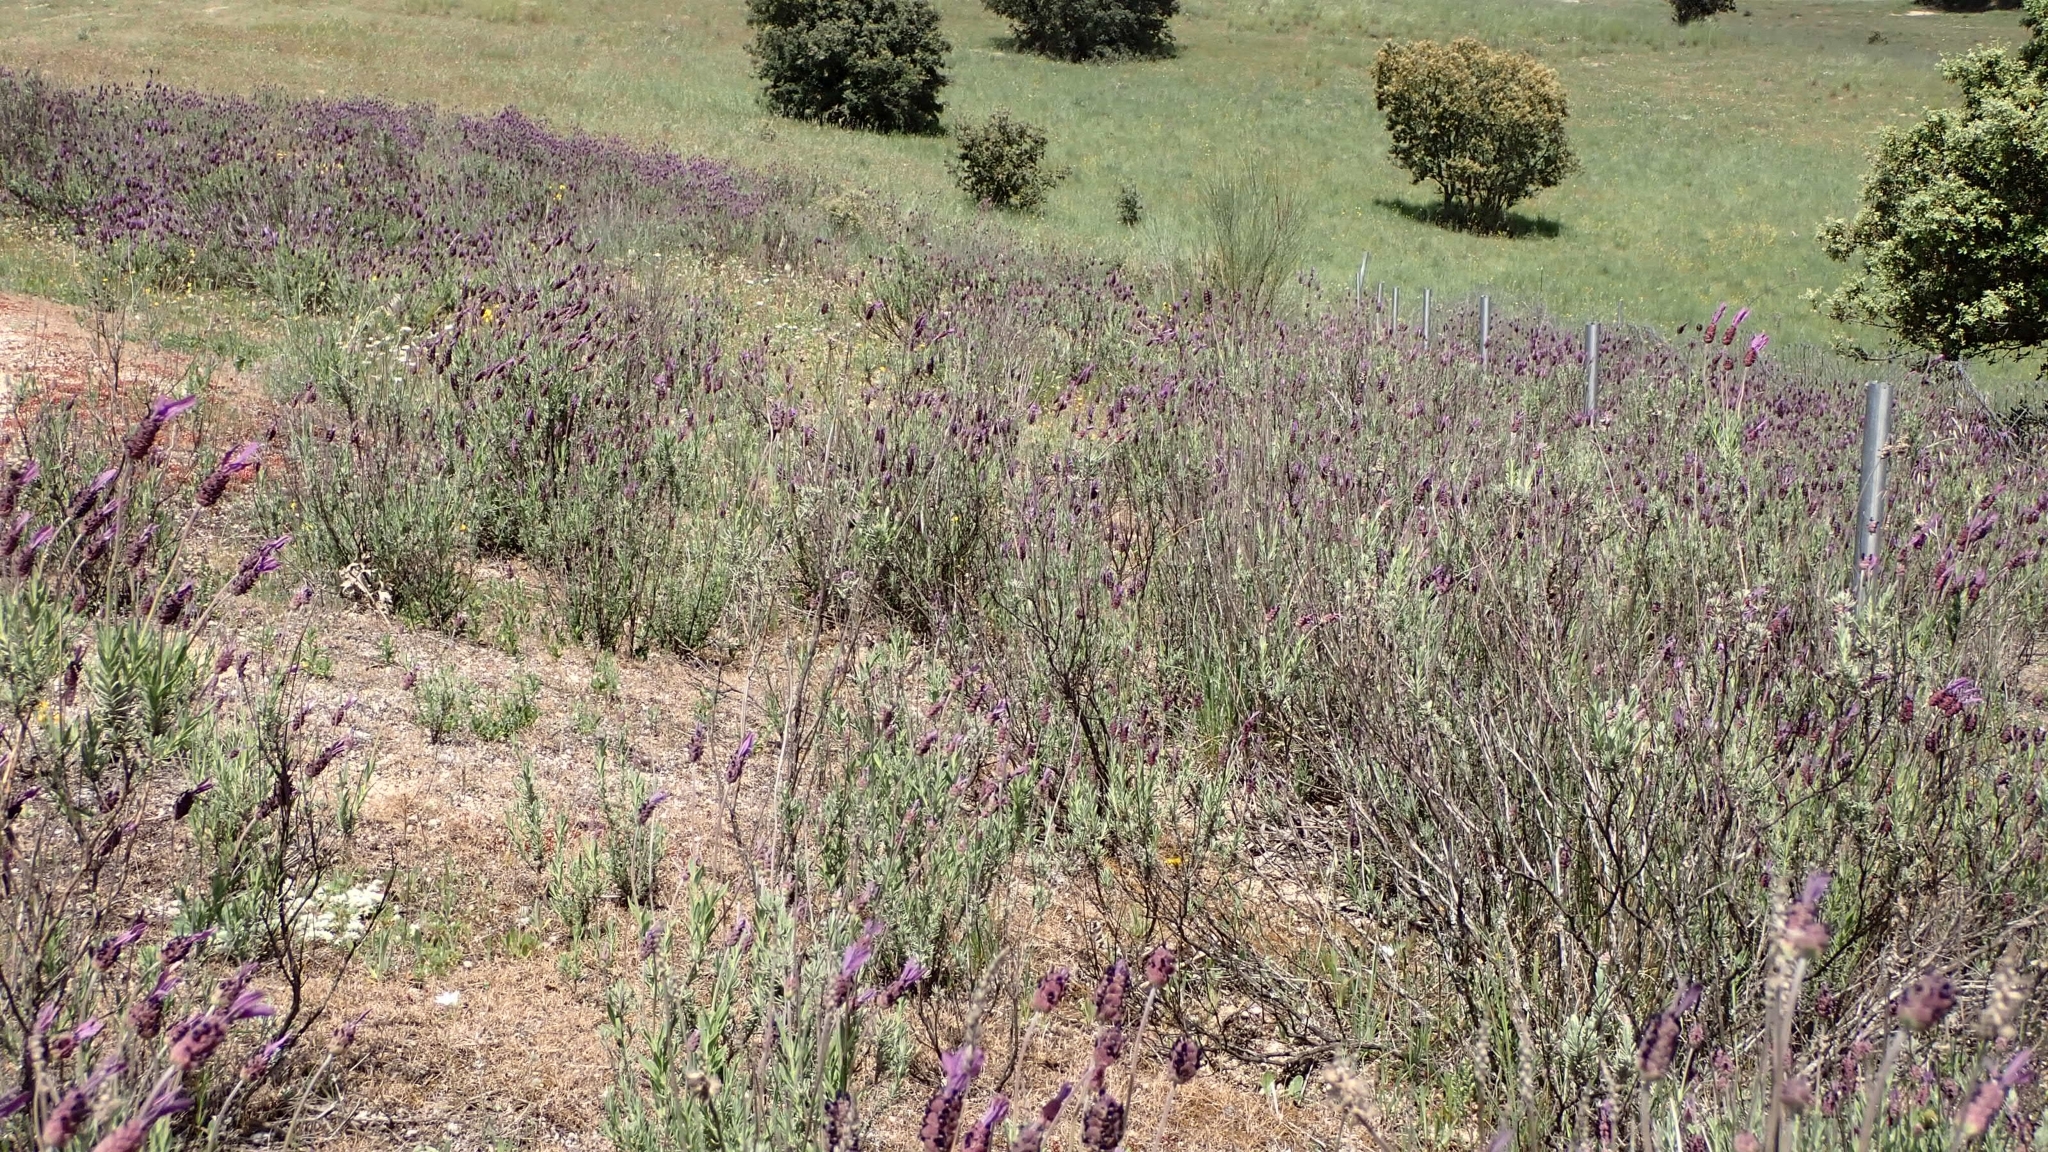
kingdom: Plantae
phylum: Tracheophyta
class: Magnoliopsida
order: Lamiales
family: Lamiaceae
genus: Lavandula
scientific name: Lavandula pedunculata
